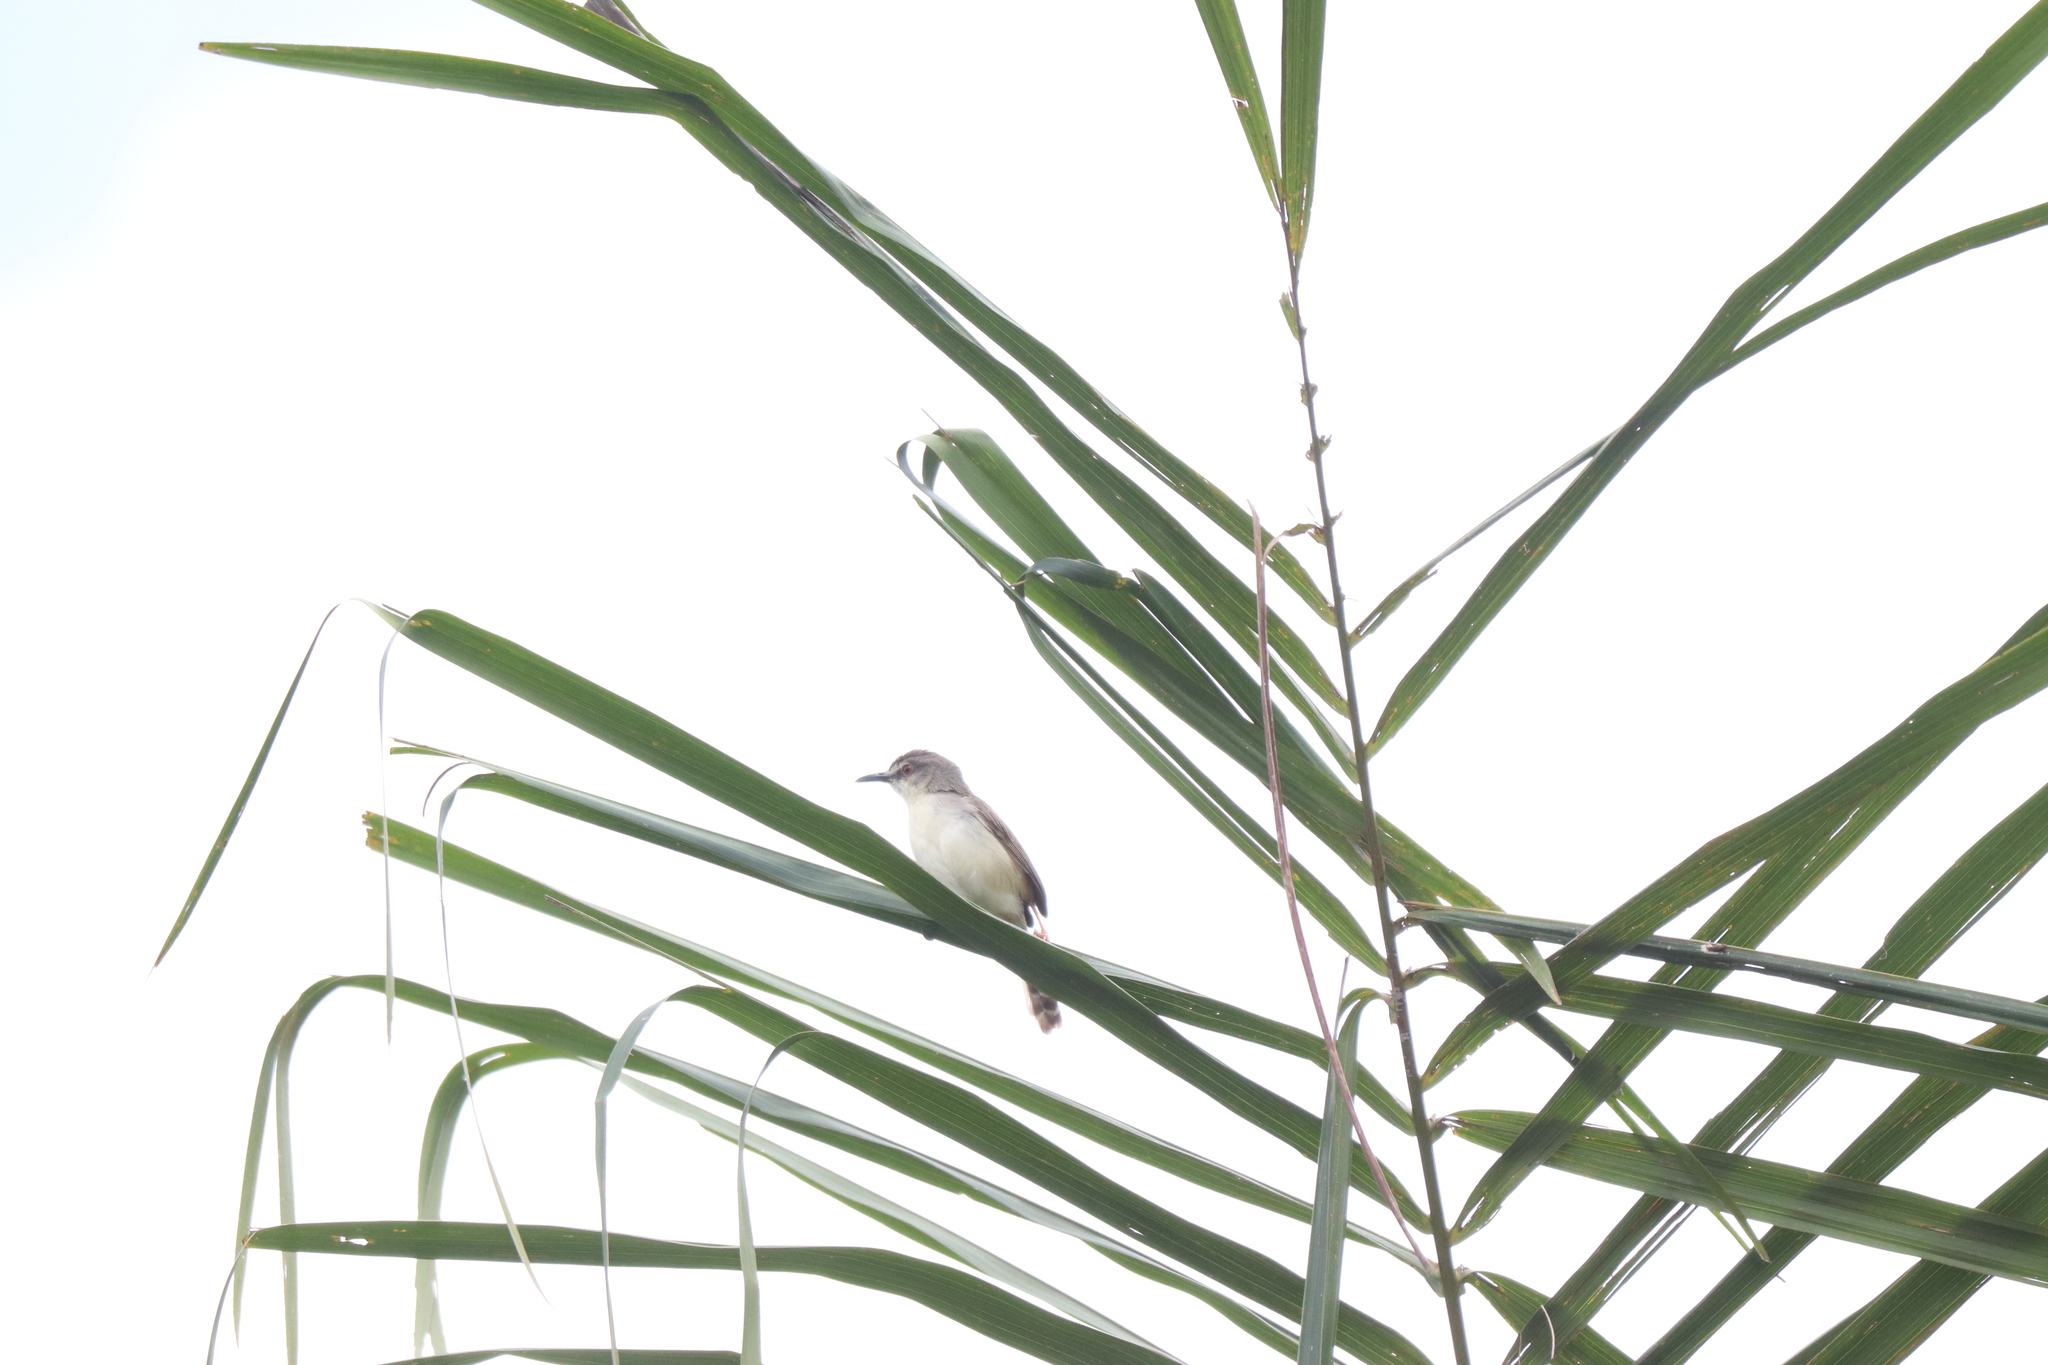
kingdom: Animalia
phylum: Chordata
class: Aves
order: Passeriformes
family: Cisticolidae
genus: Prinia
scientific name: Prinia subflava
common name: Tawny-flanked prinia
